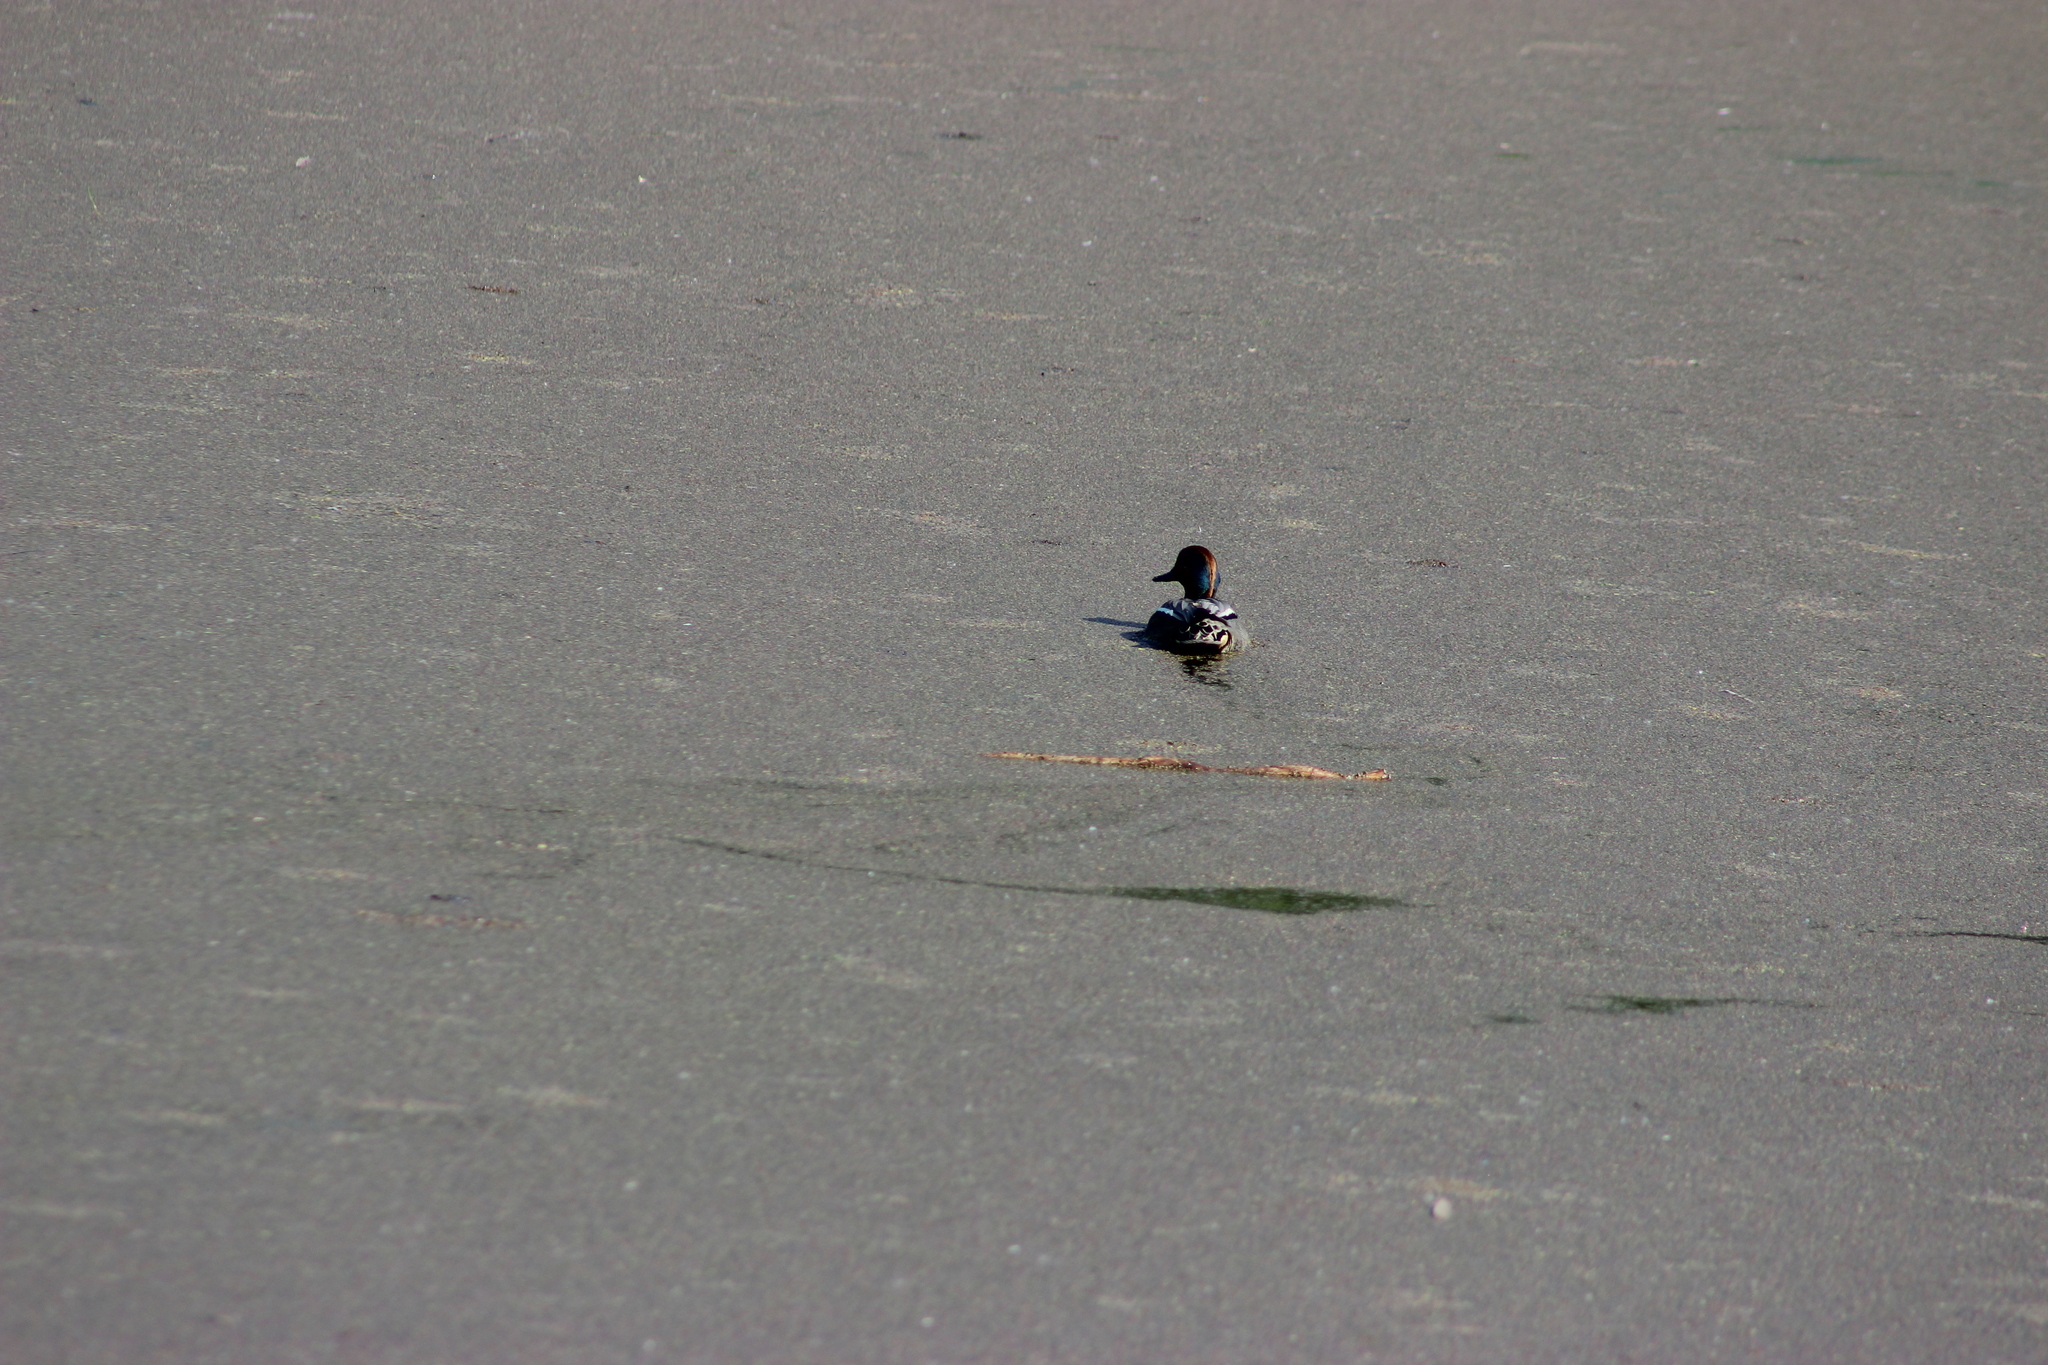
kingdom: Animalia
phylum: Chordata
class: Aves
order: Anseriformes
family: Anatidae
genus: Anas
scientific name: Anas crecca
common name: Eurasian teal
